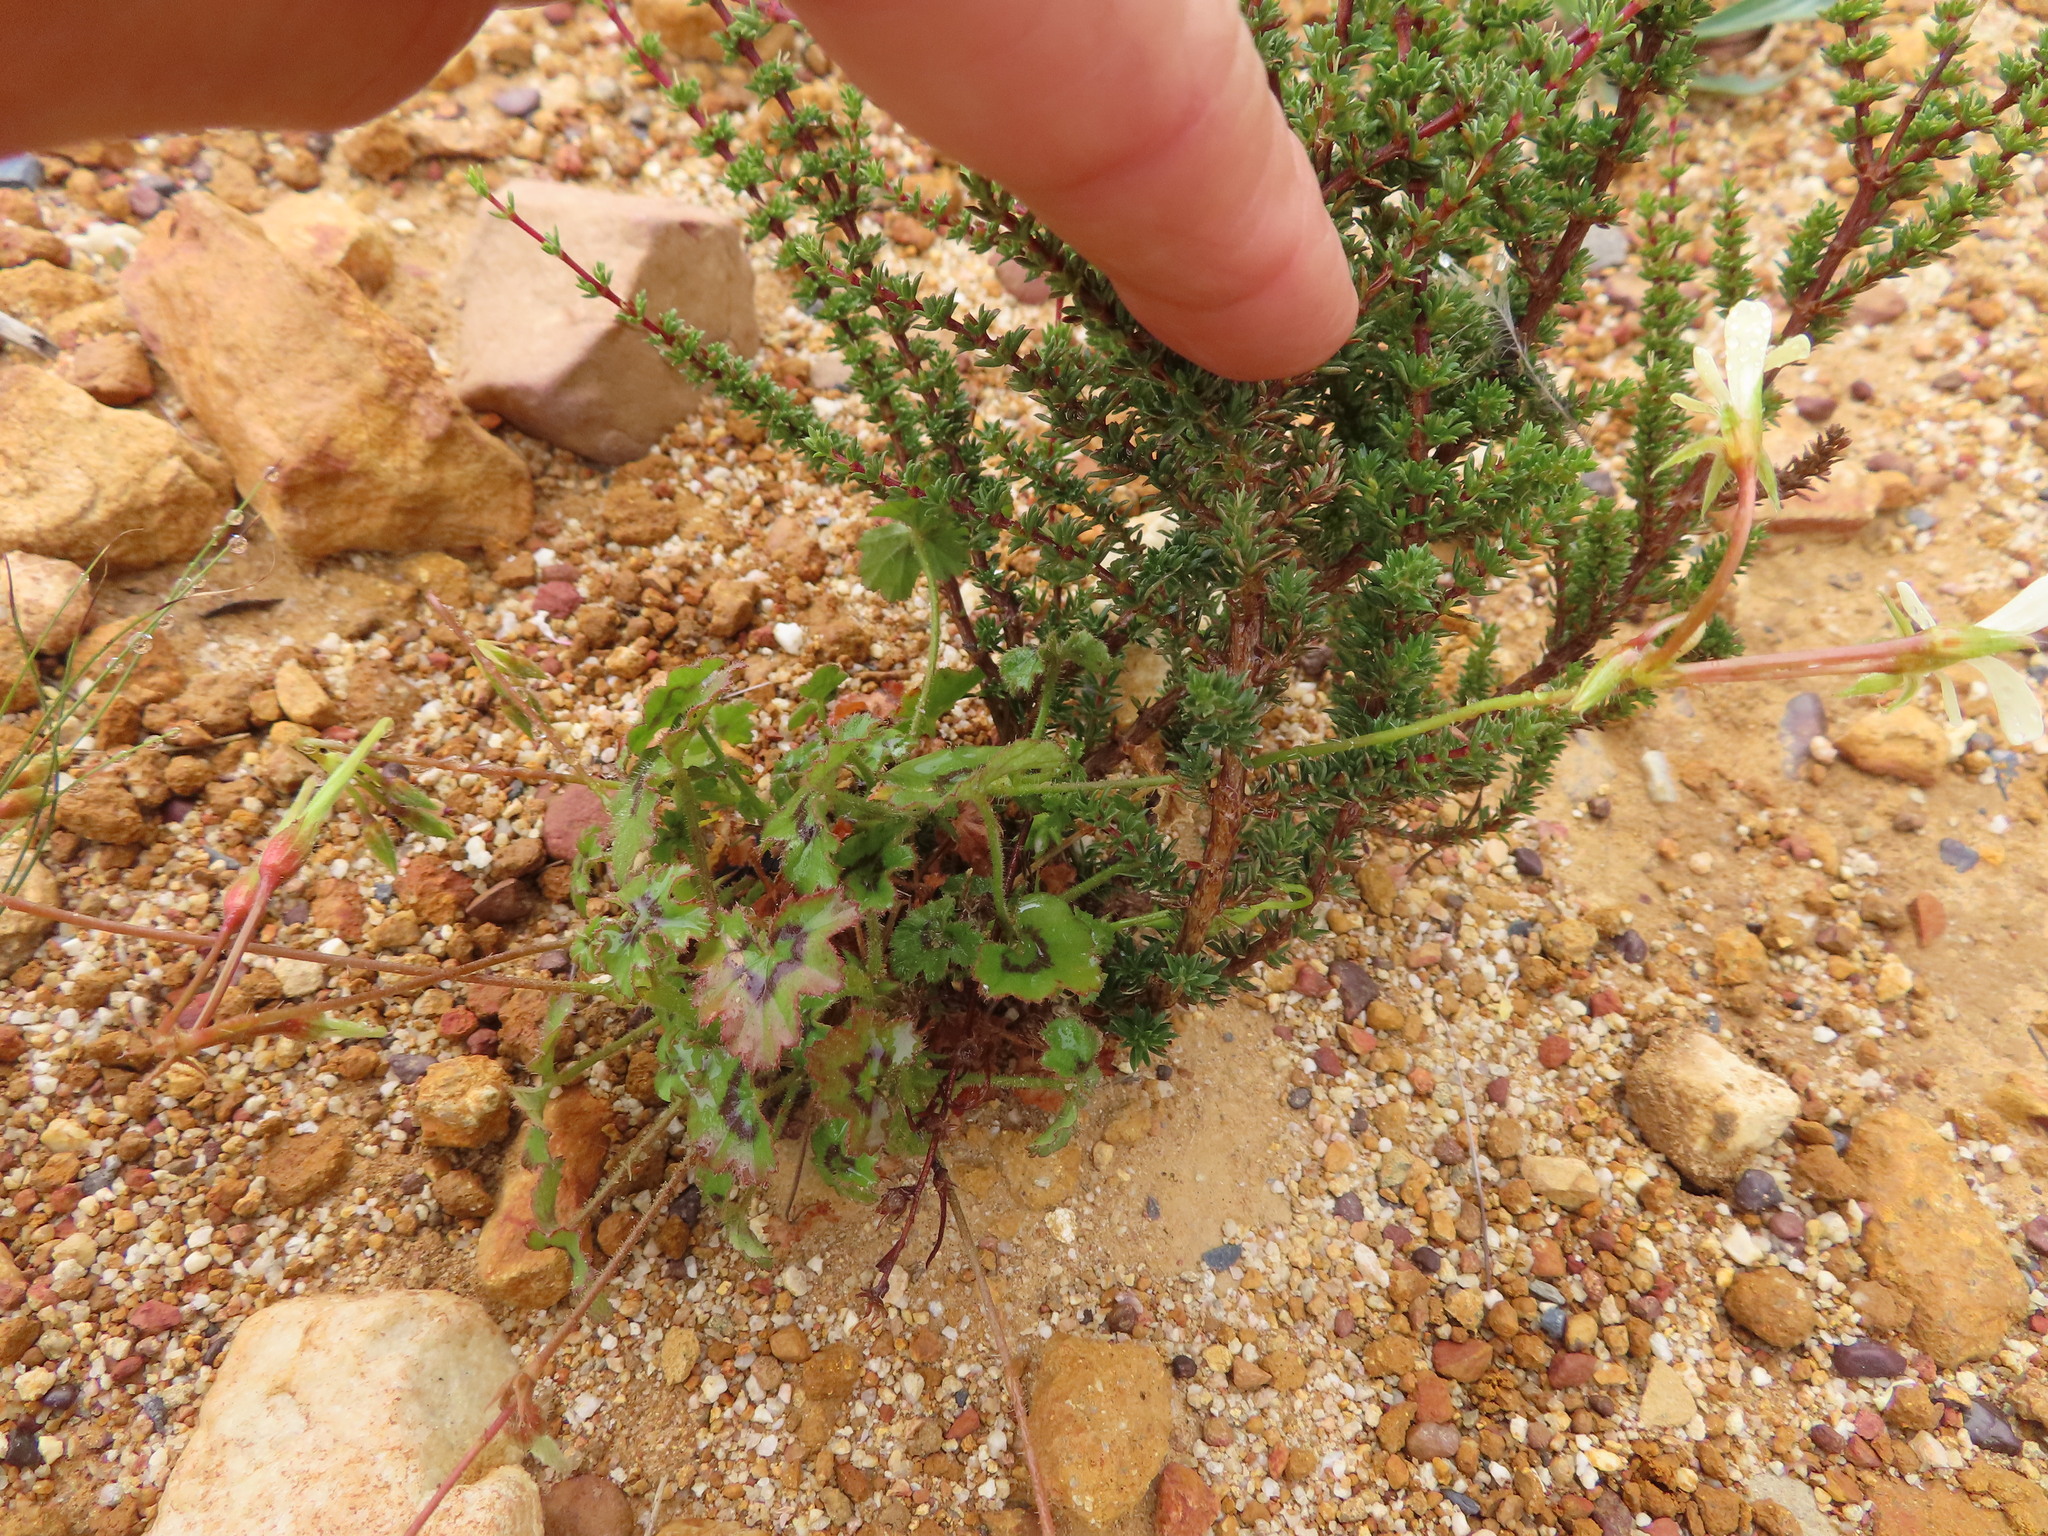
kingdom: Plantae
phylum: Tracheophyta
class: Magnoliopsida
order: Geraniales
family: Geraniaceae
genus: Pelargonium
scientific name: Pelargonium elongatum
